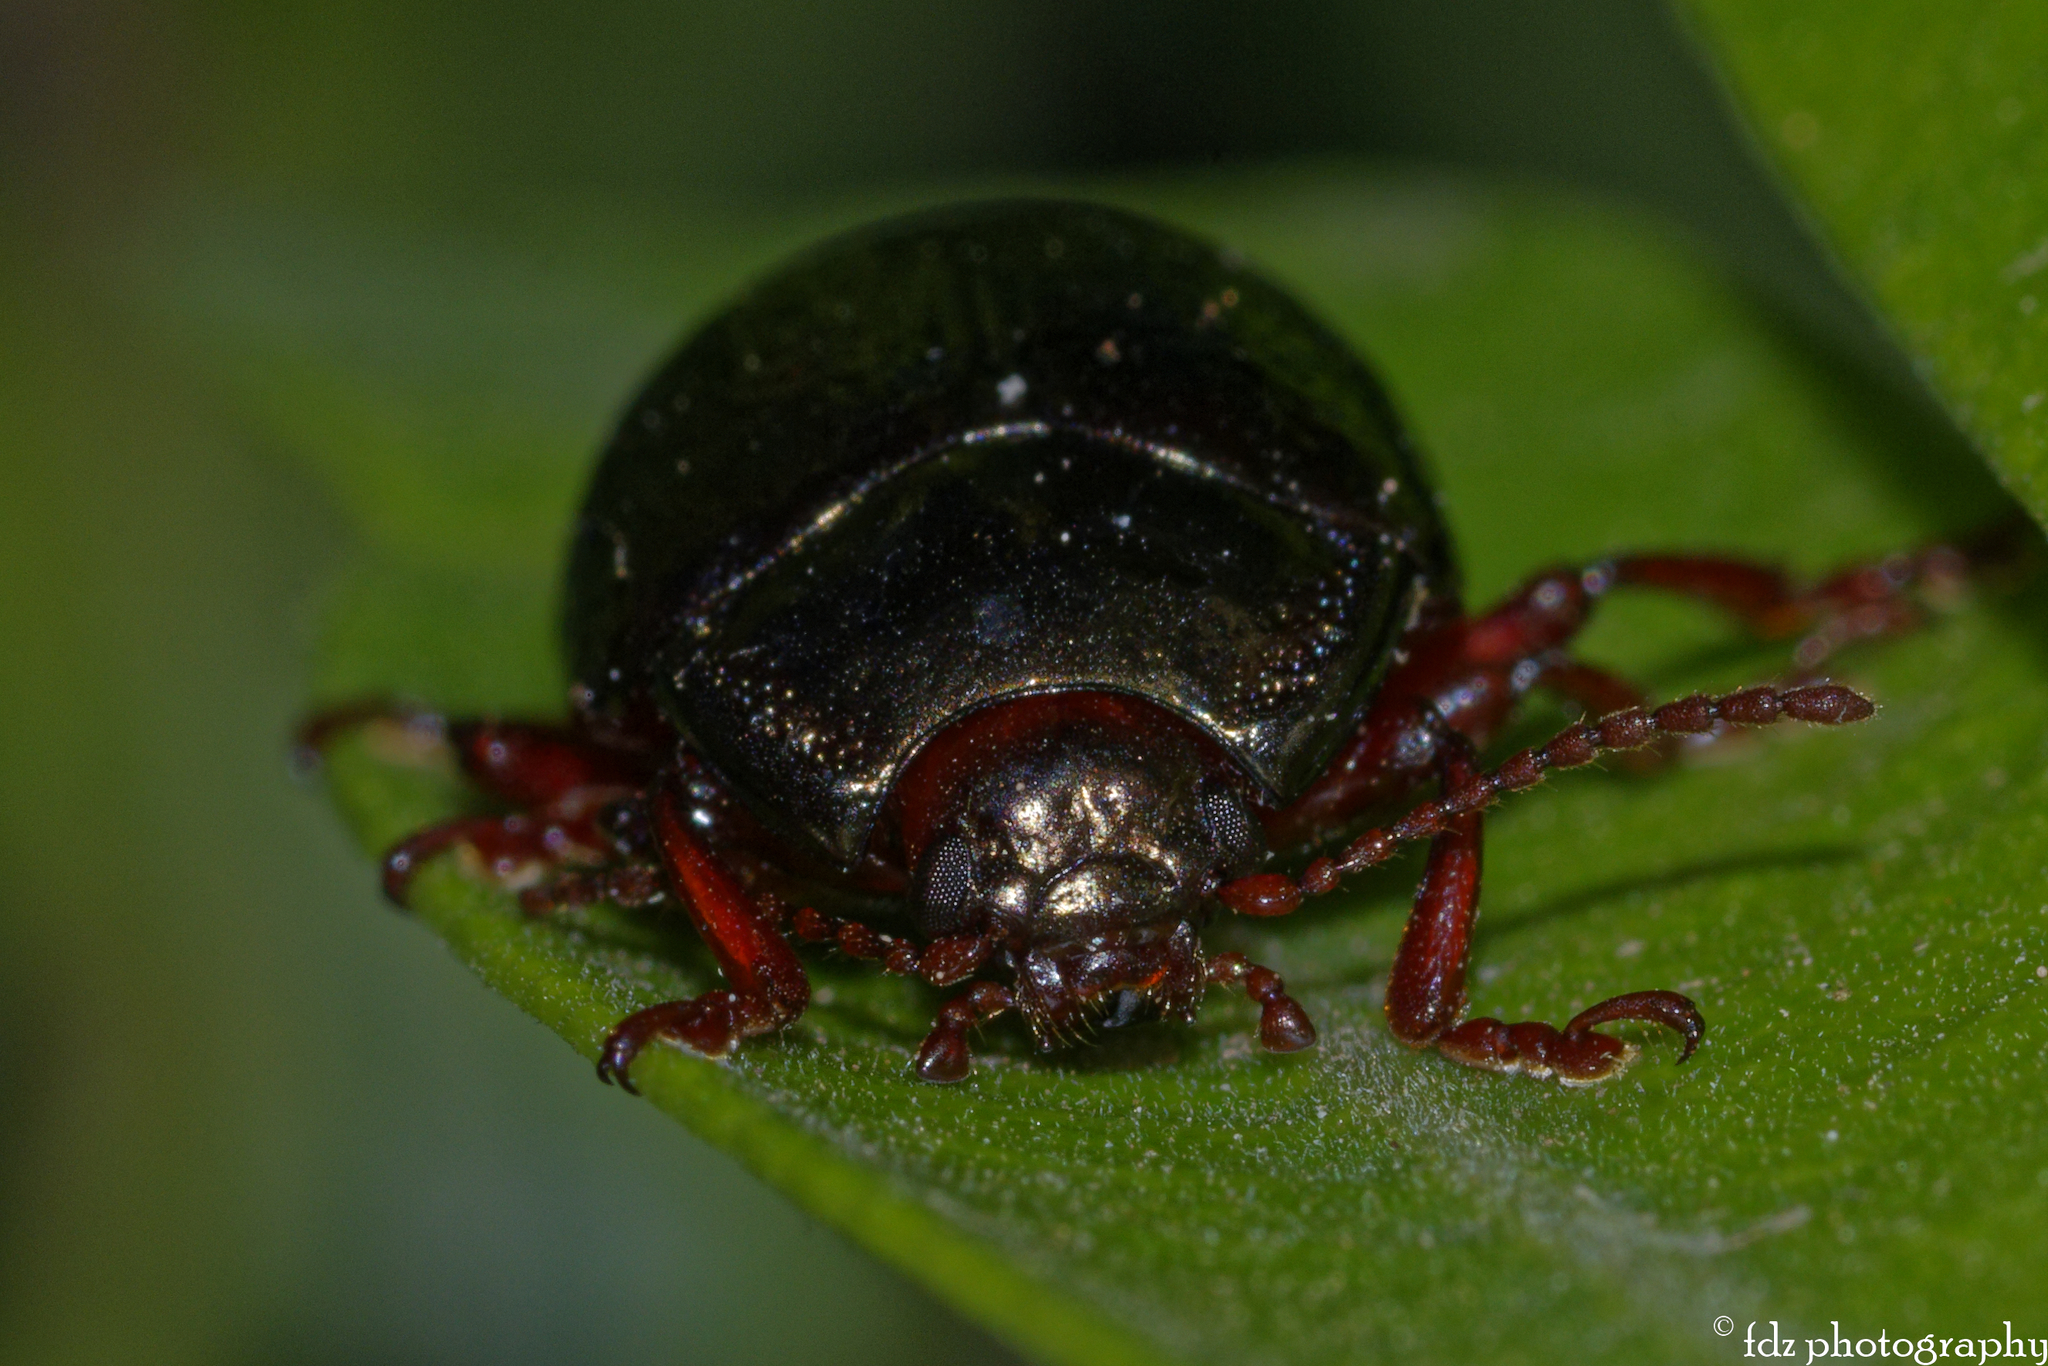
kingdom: Animalia
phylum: Arthropoda
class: Insecta
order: Coleoptera
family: Chrysomelidae
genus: Chrysolina
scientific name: Chrysolina bankii
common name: Leaf beetle
